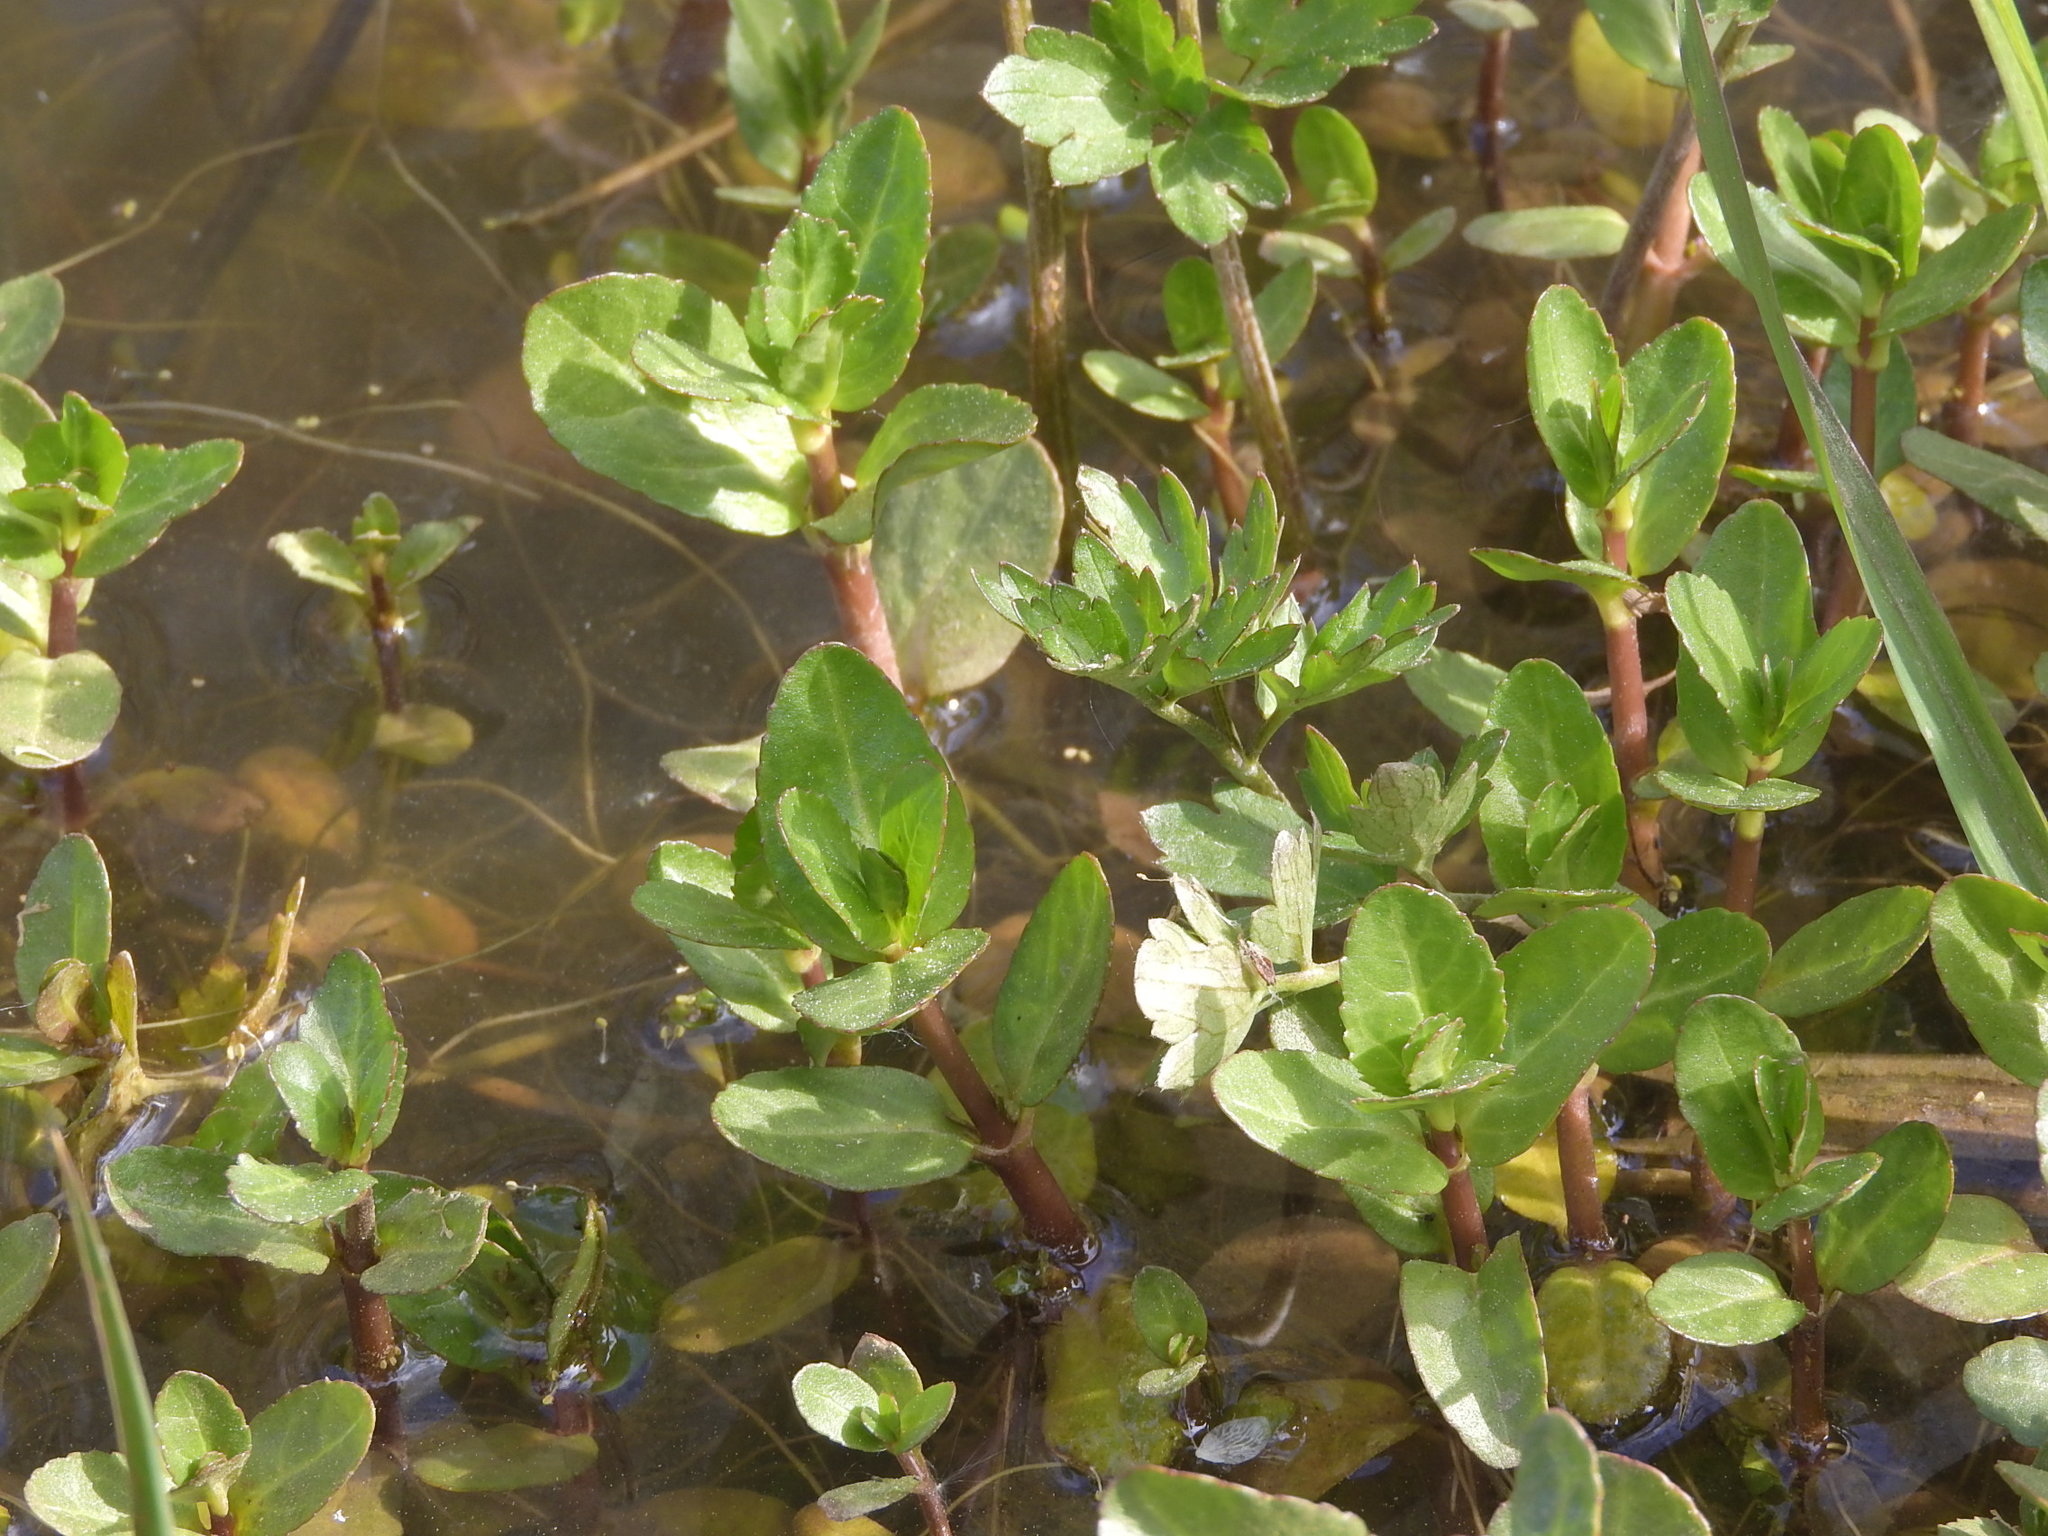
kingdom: Plantae
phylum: Tracheophyta
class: Magnoliopsida
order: Lamiales
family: Plantaginaceae
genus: Veronica
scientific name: Veronica beccabunga
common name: Brooklime
